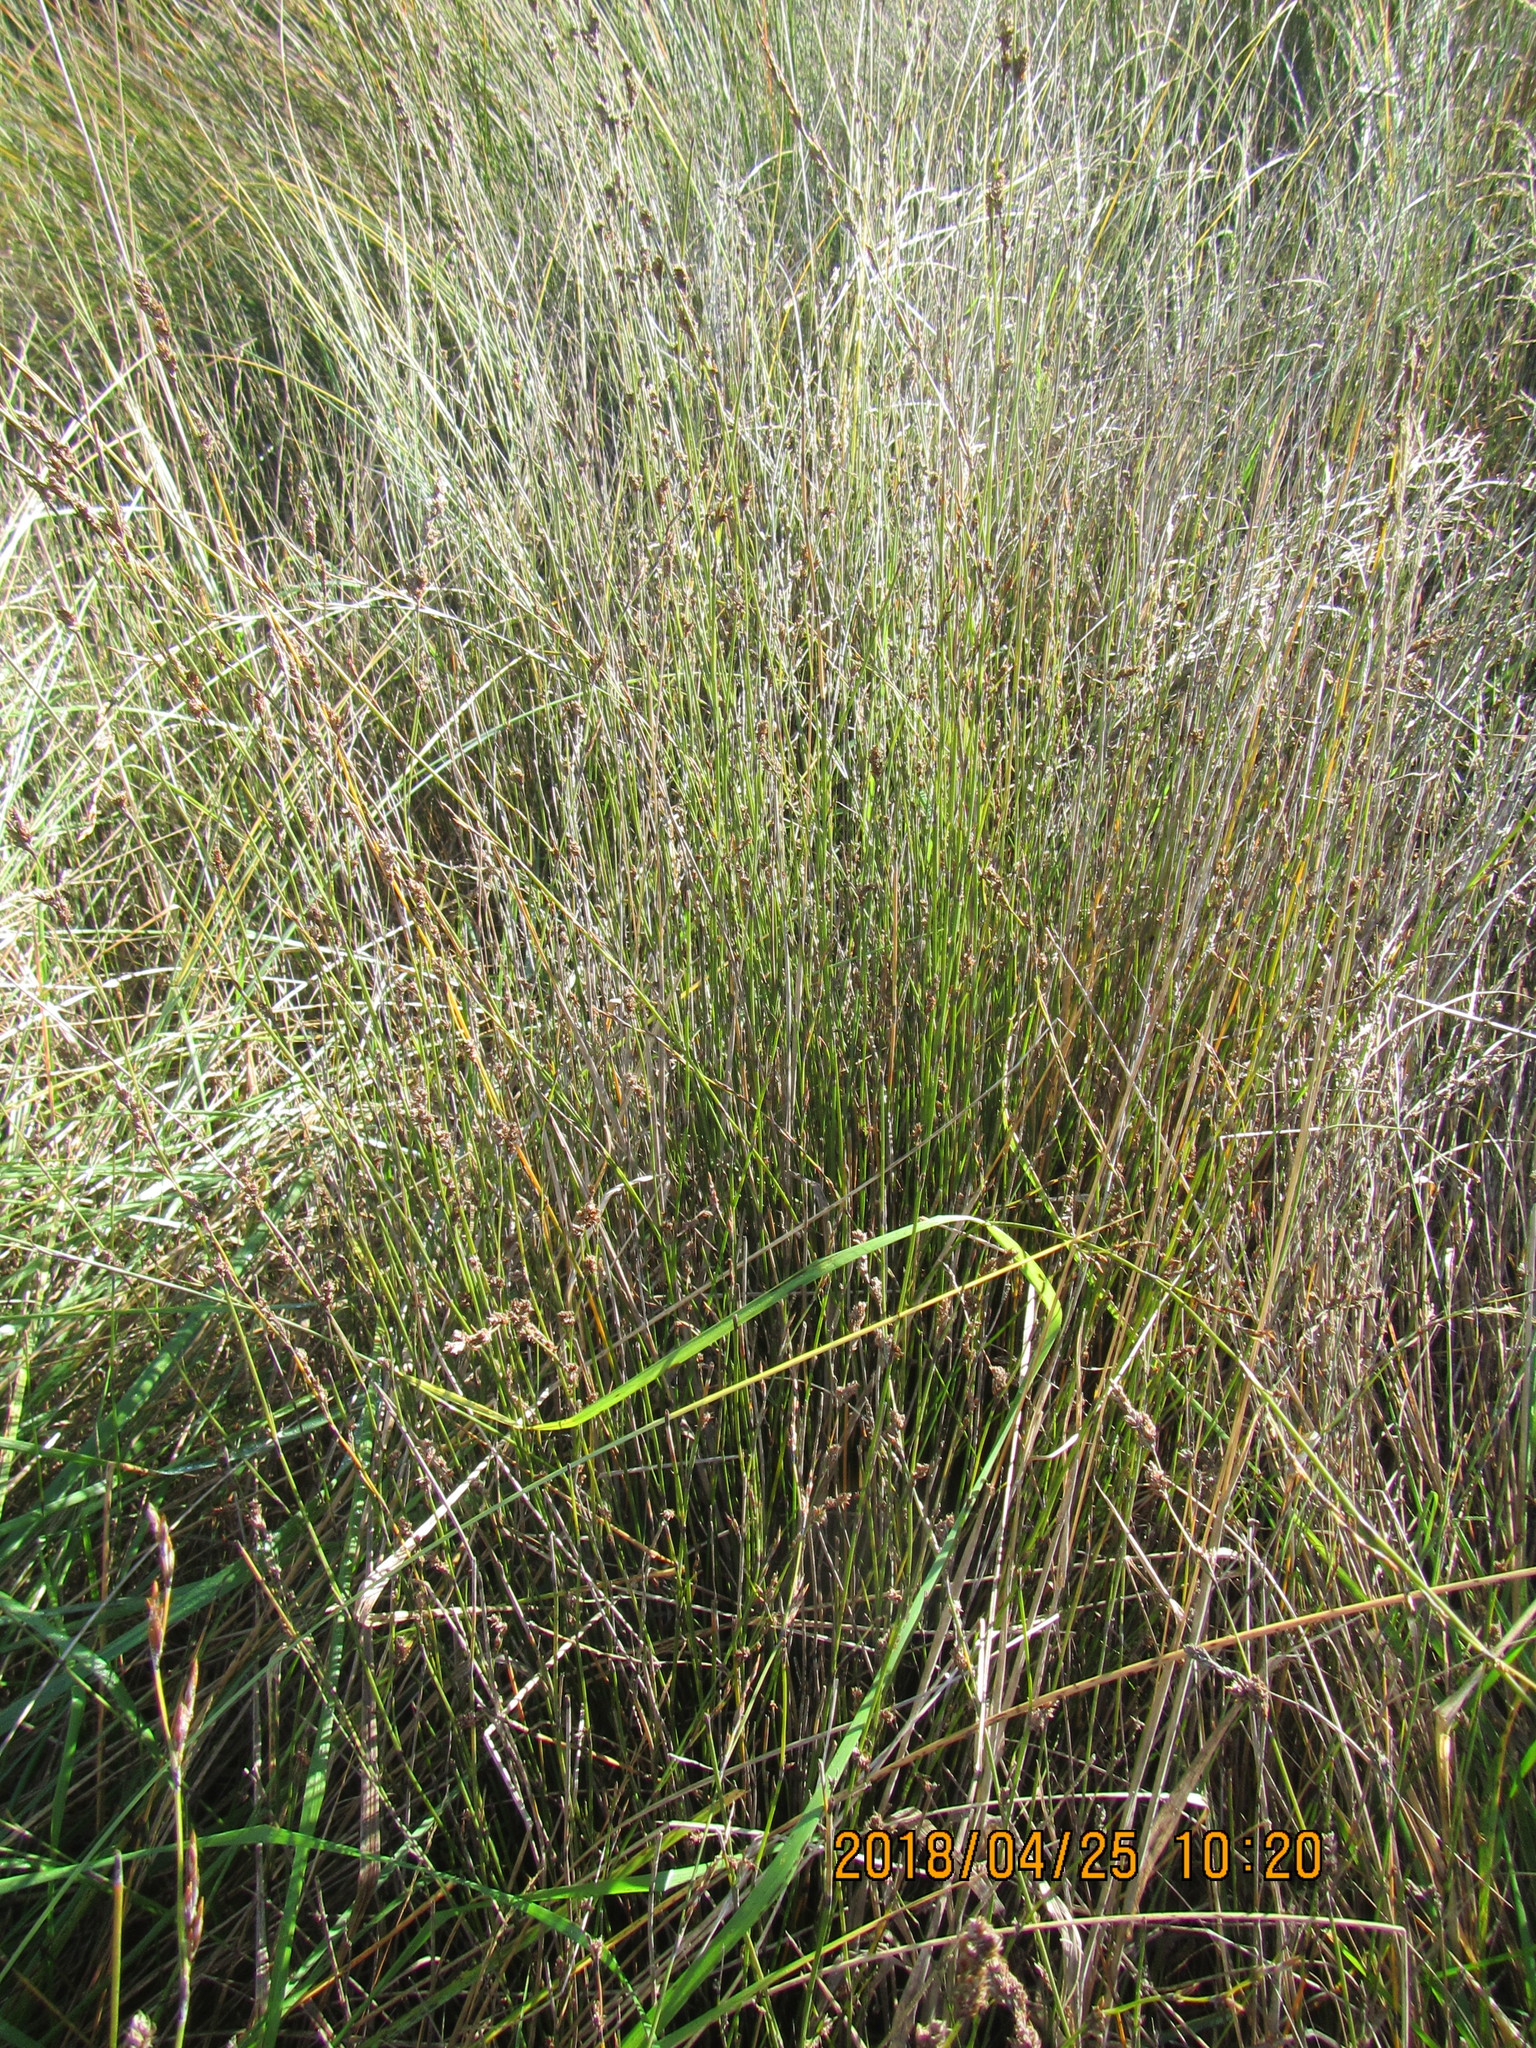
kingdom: Plantae
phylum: Tracheophyta
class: Liliopsida
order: Poales
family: Restionaceae
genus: Apodasmia
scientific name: Apodasmia similis
